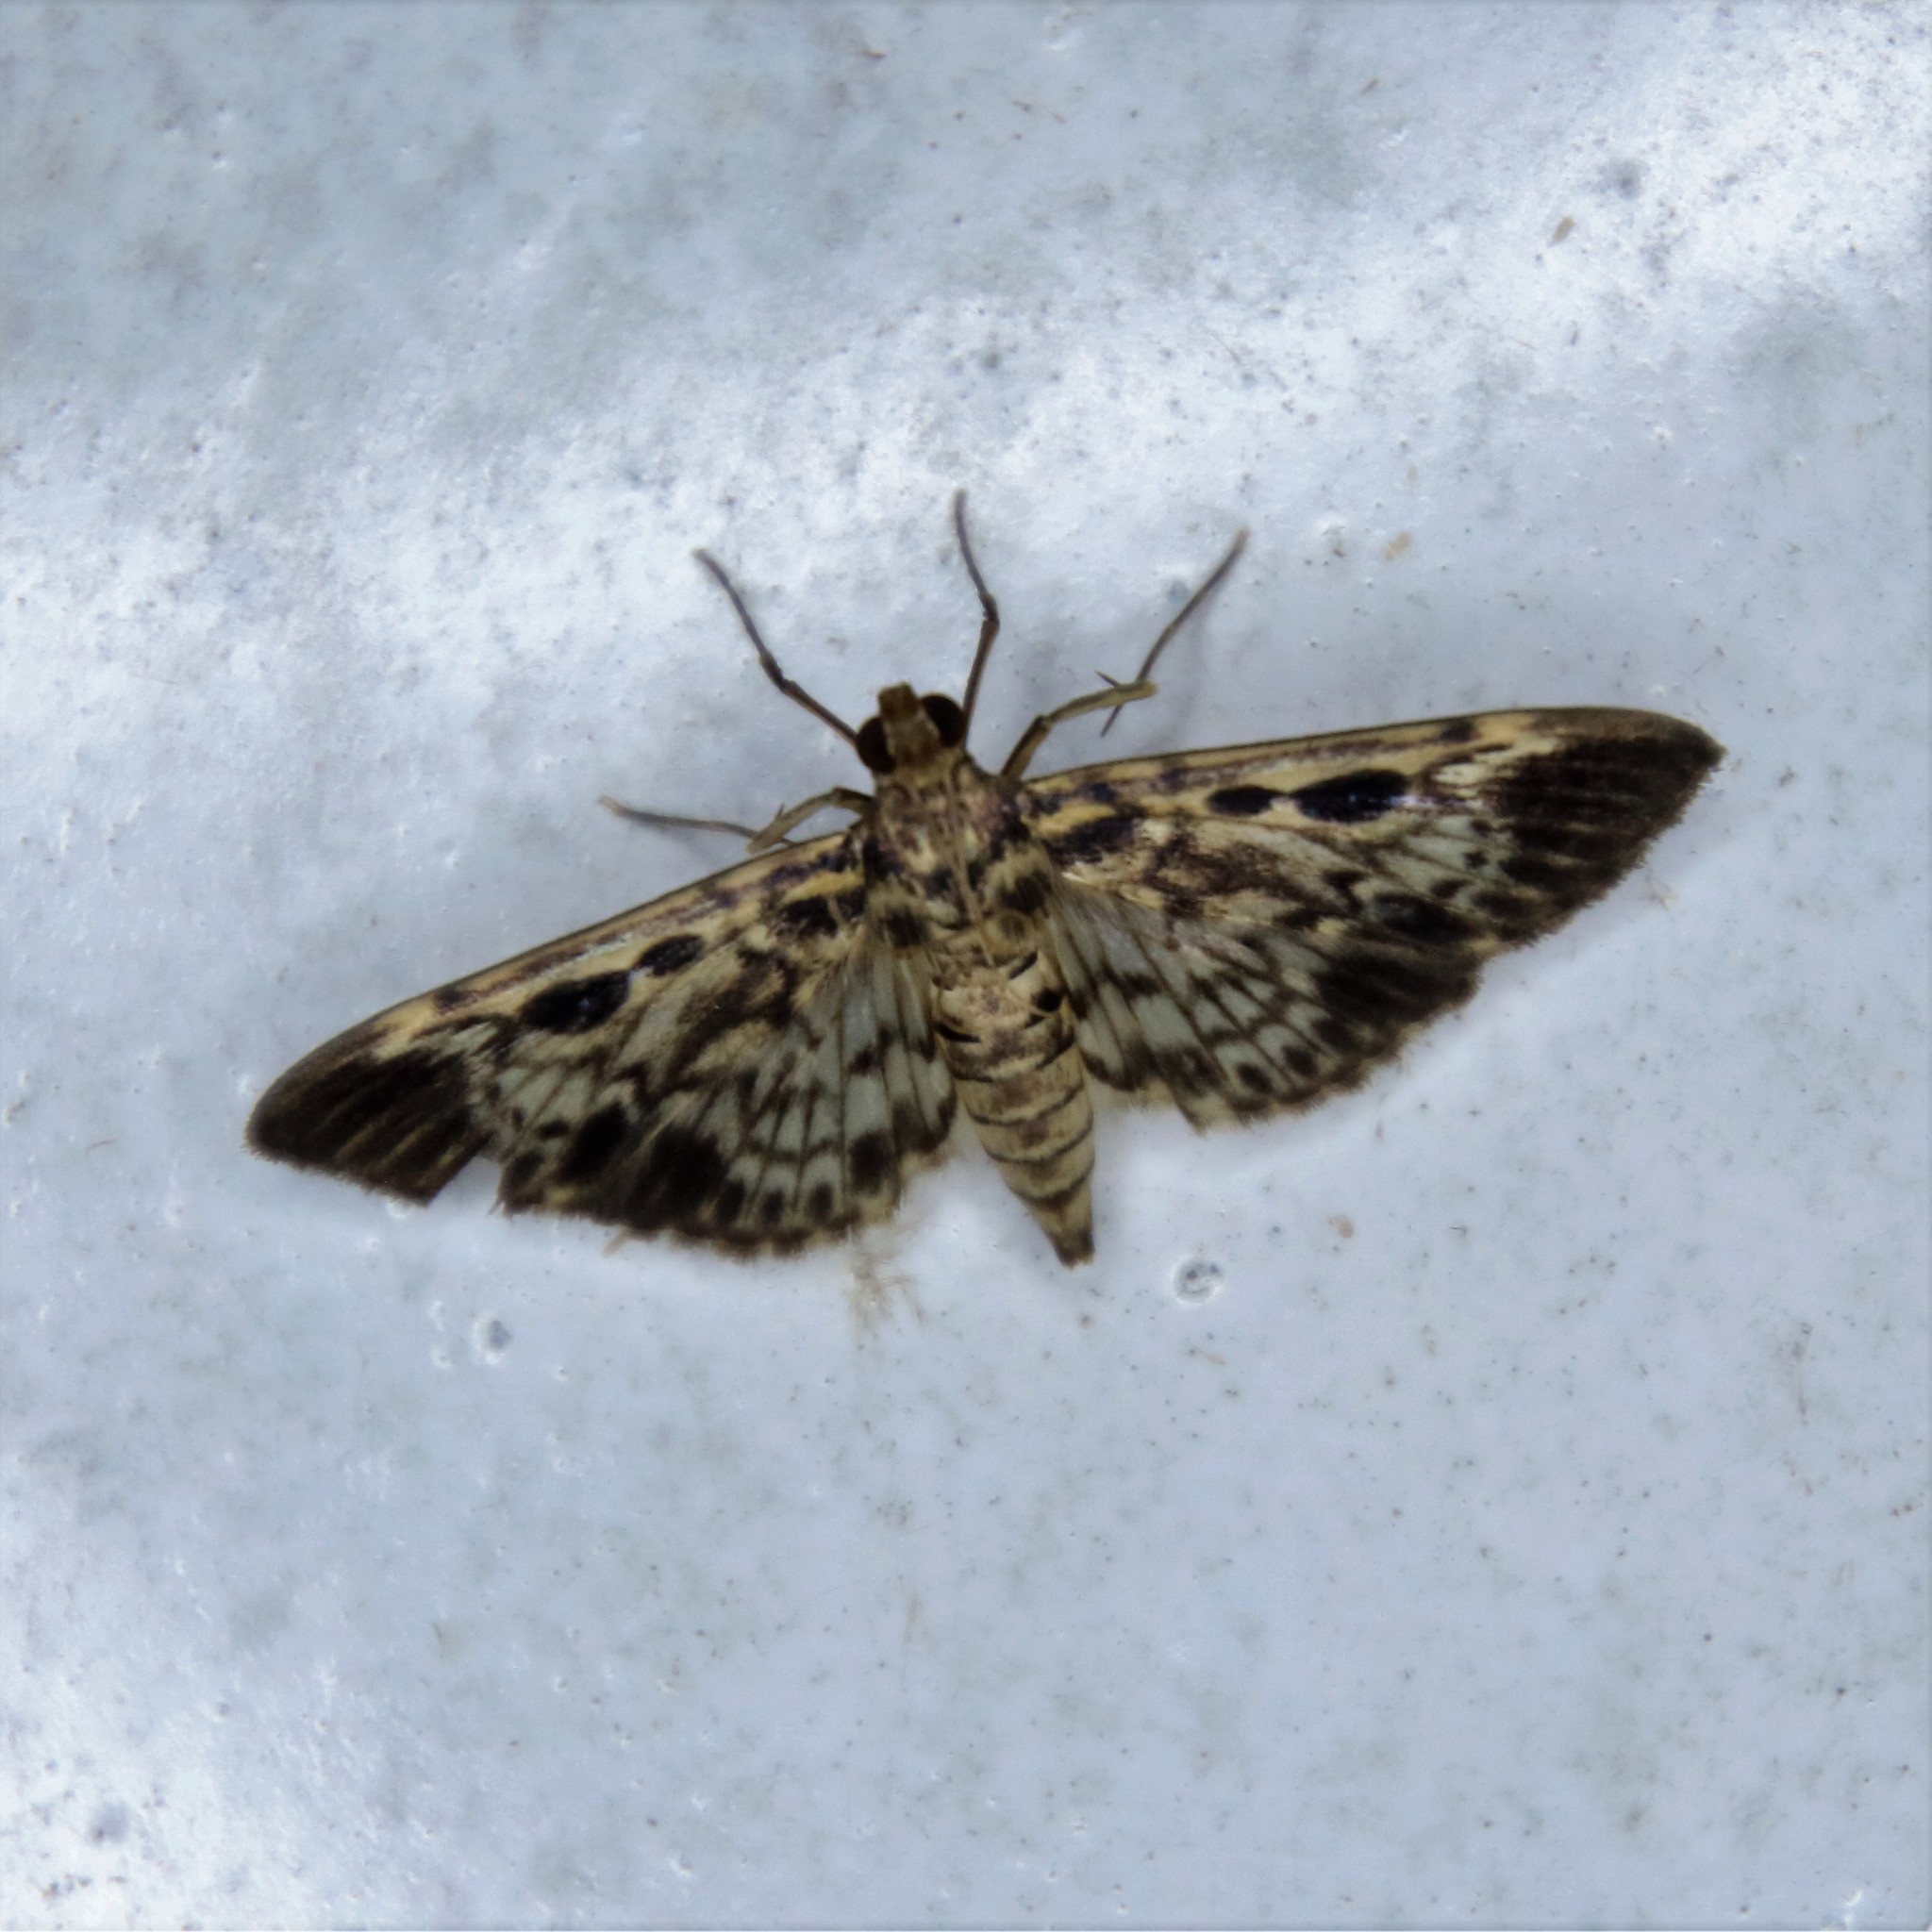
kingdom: Animalia
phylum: Arthropoda
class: Insecta
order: Lepidoptera
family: Crambidae
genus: Rhimphaliodes
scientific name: Rhimphaliodes macrostigma
